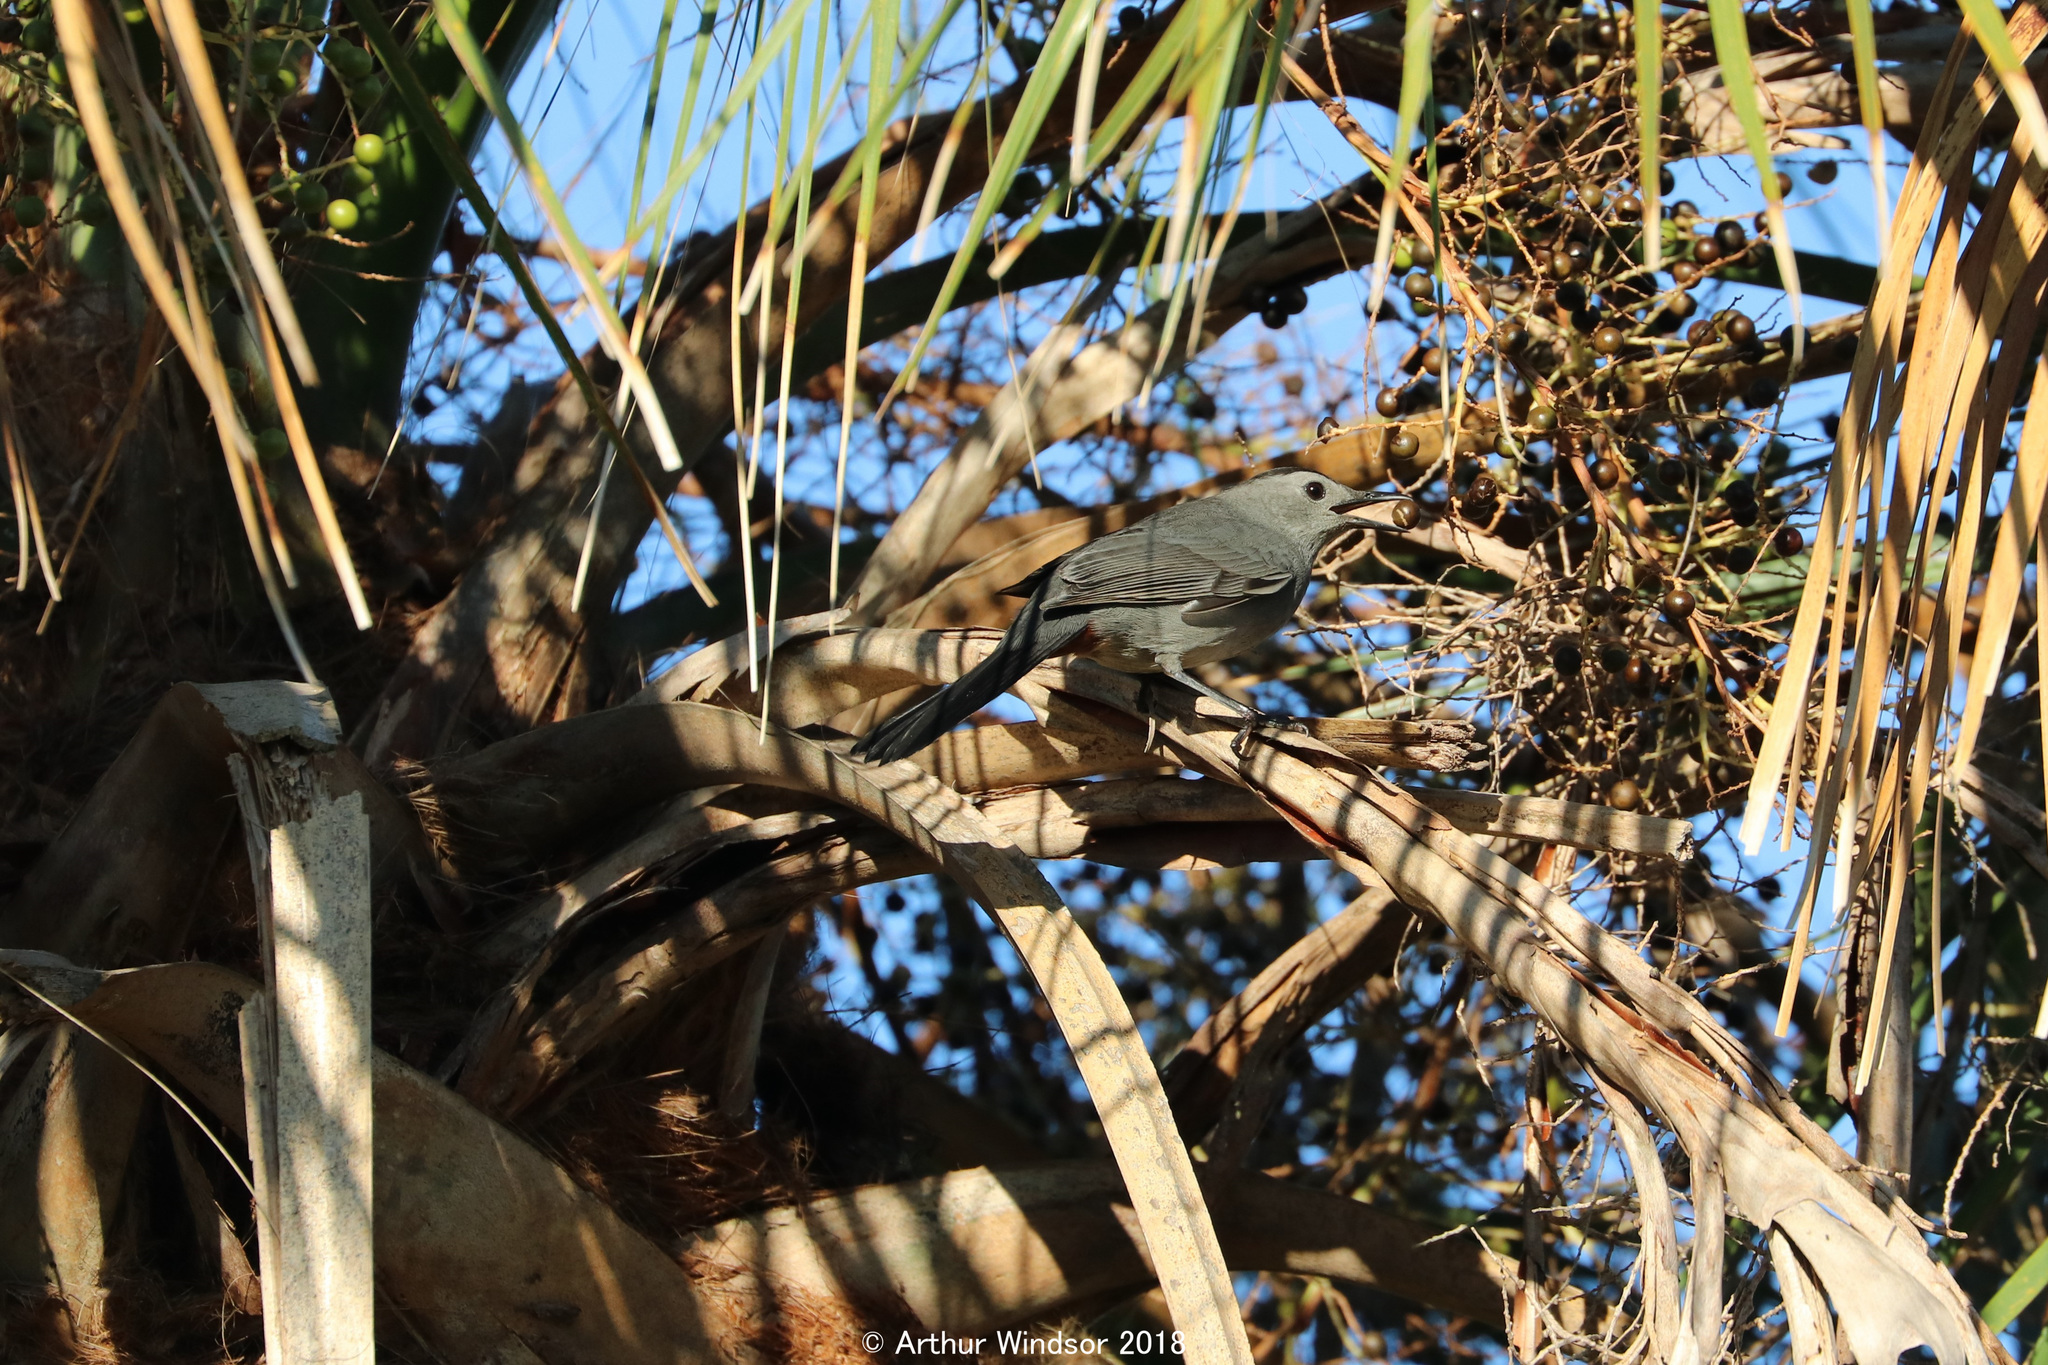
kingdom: Animalia
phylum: Chordata
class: Aves
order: Passeriformes
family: Mimidae
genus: Dumetella
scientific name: Dumetella carolinensis
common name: Gray catbird
